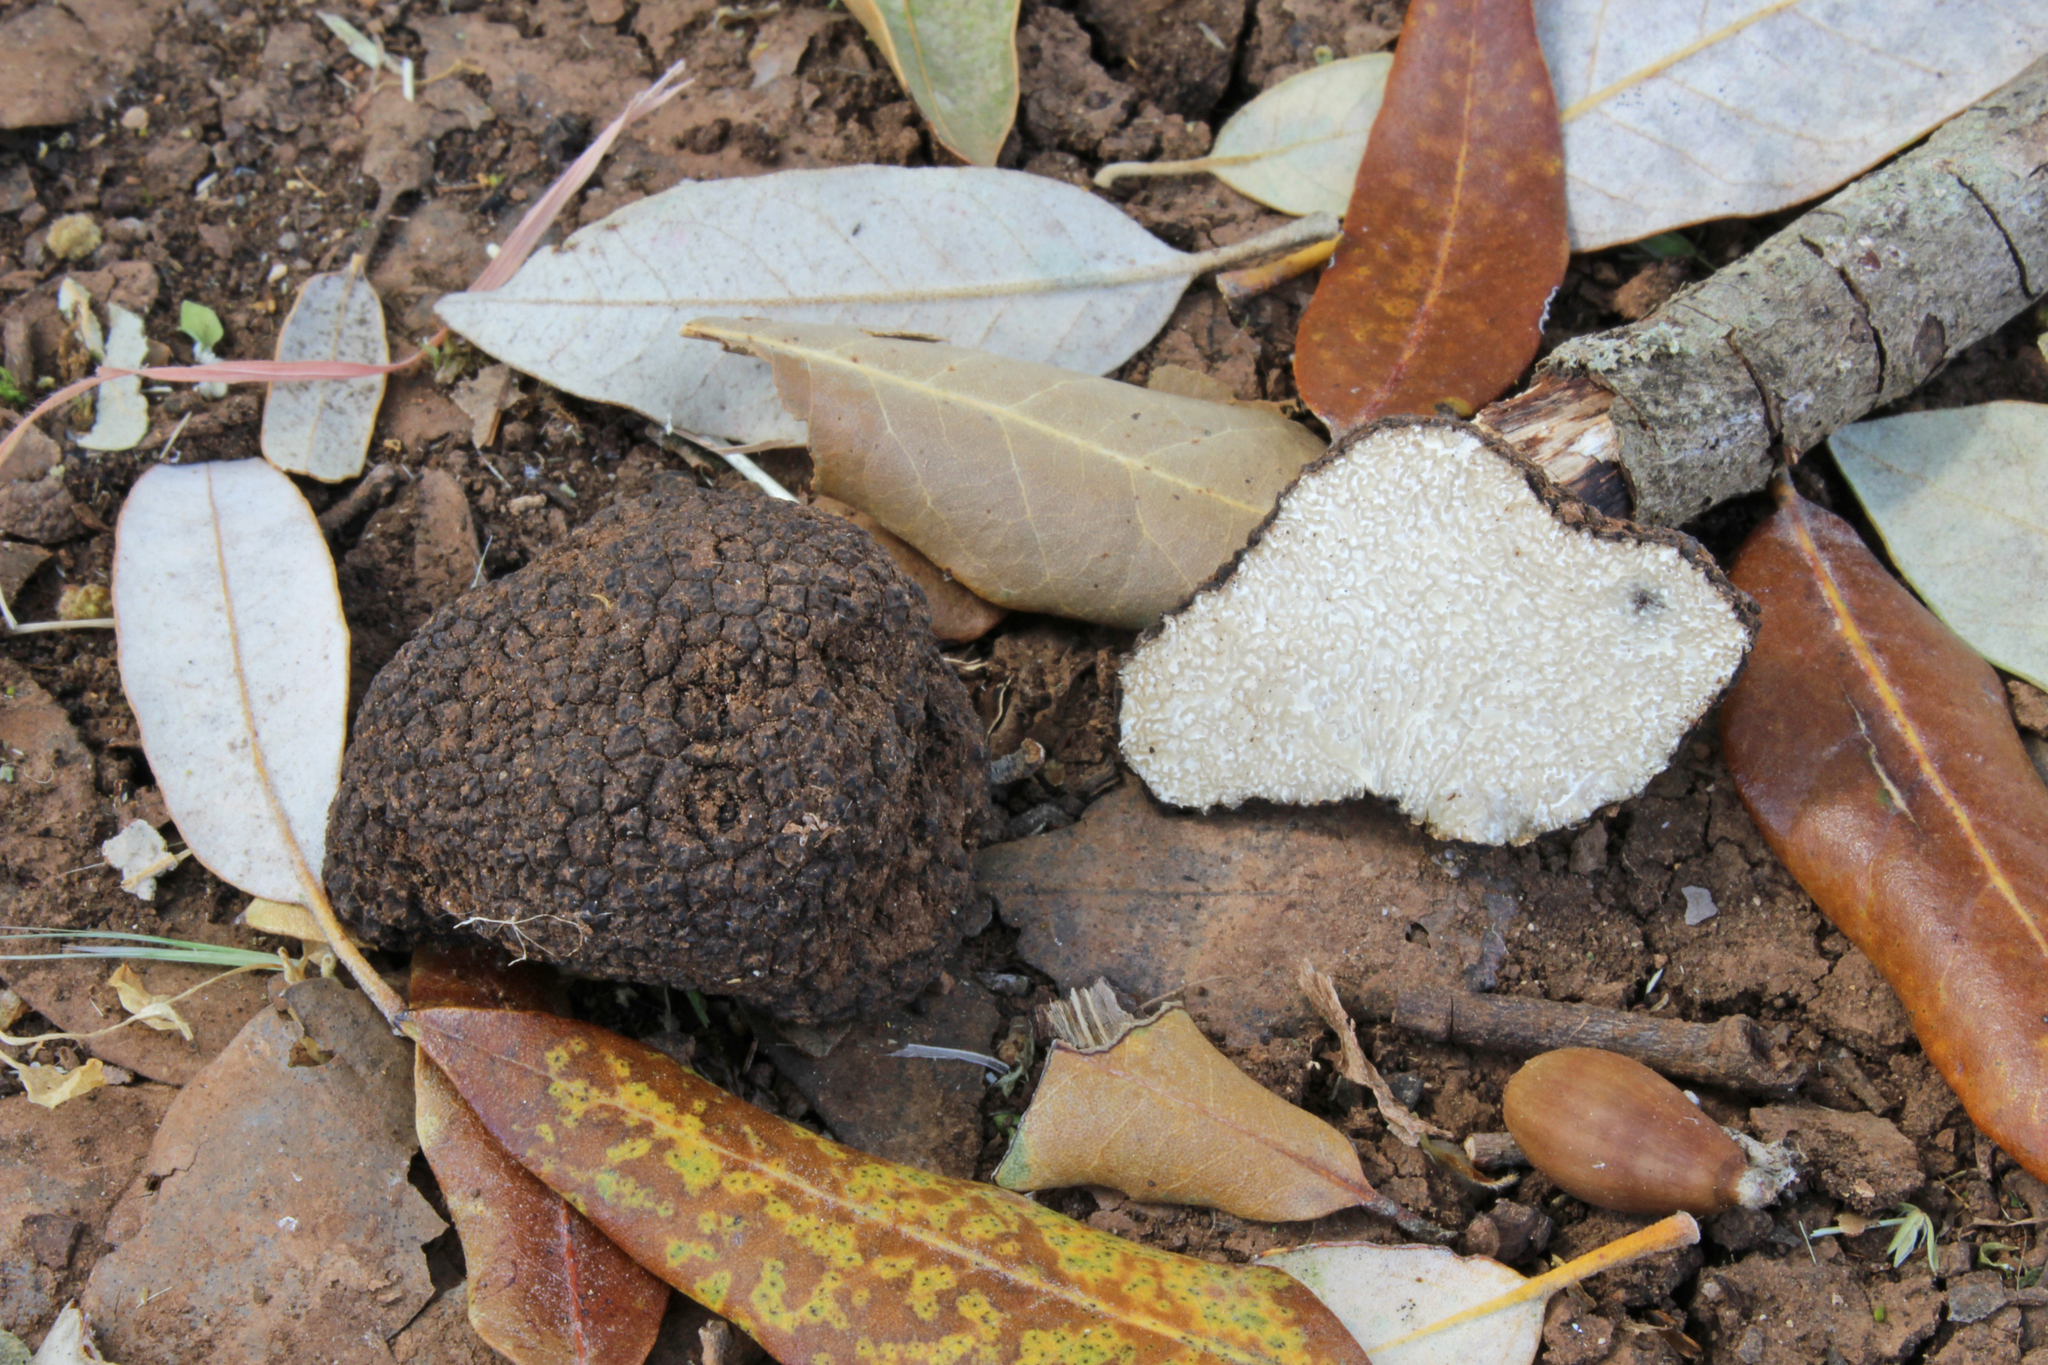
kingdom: Fungi
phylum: Ascomycota
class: Pezizomycetes
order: Pezizales
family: Tuberaceae
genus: Tuber
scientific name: Tuber aestivum
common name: Summer truffle
